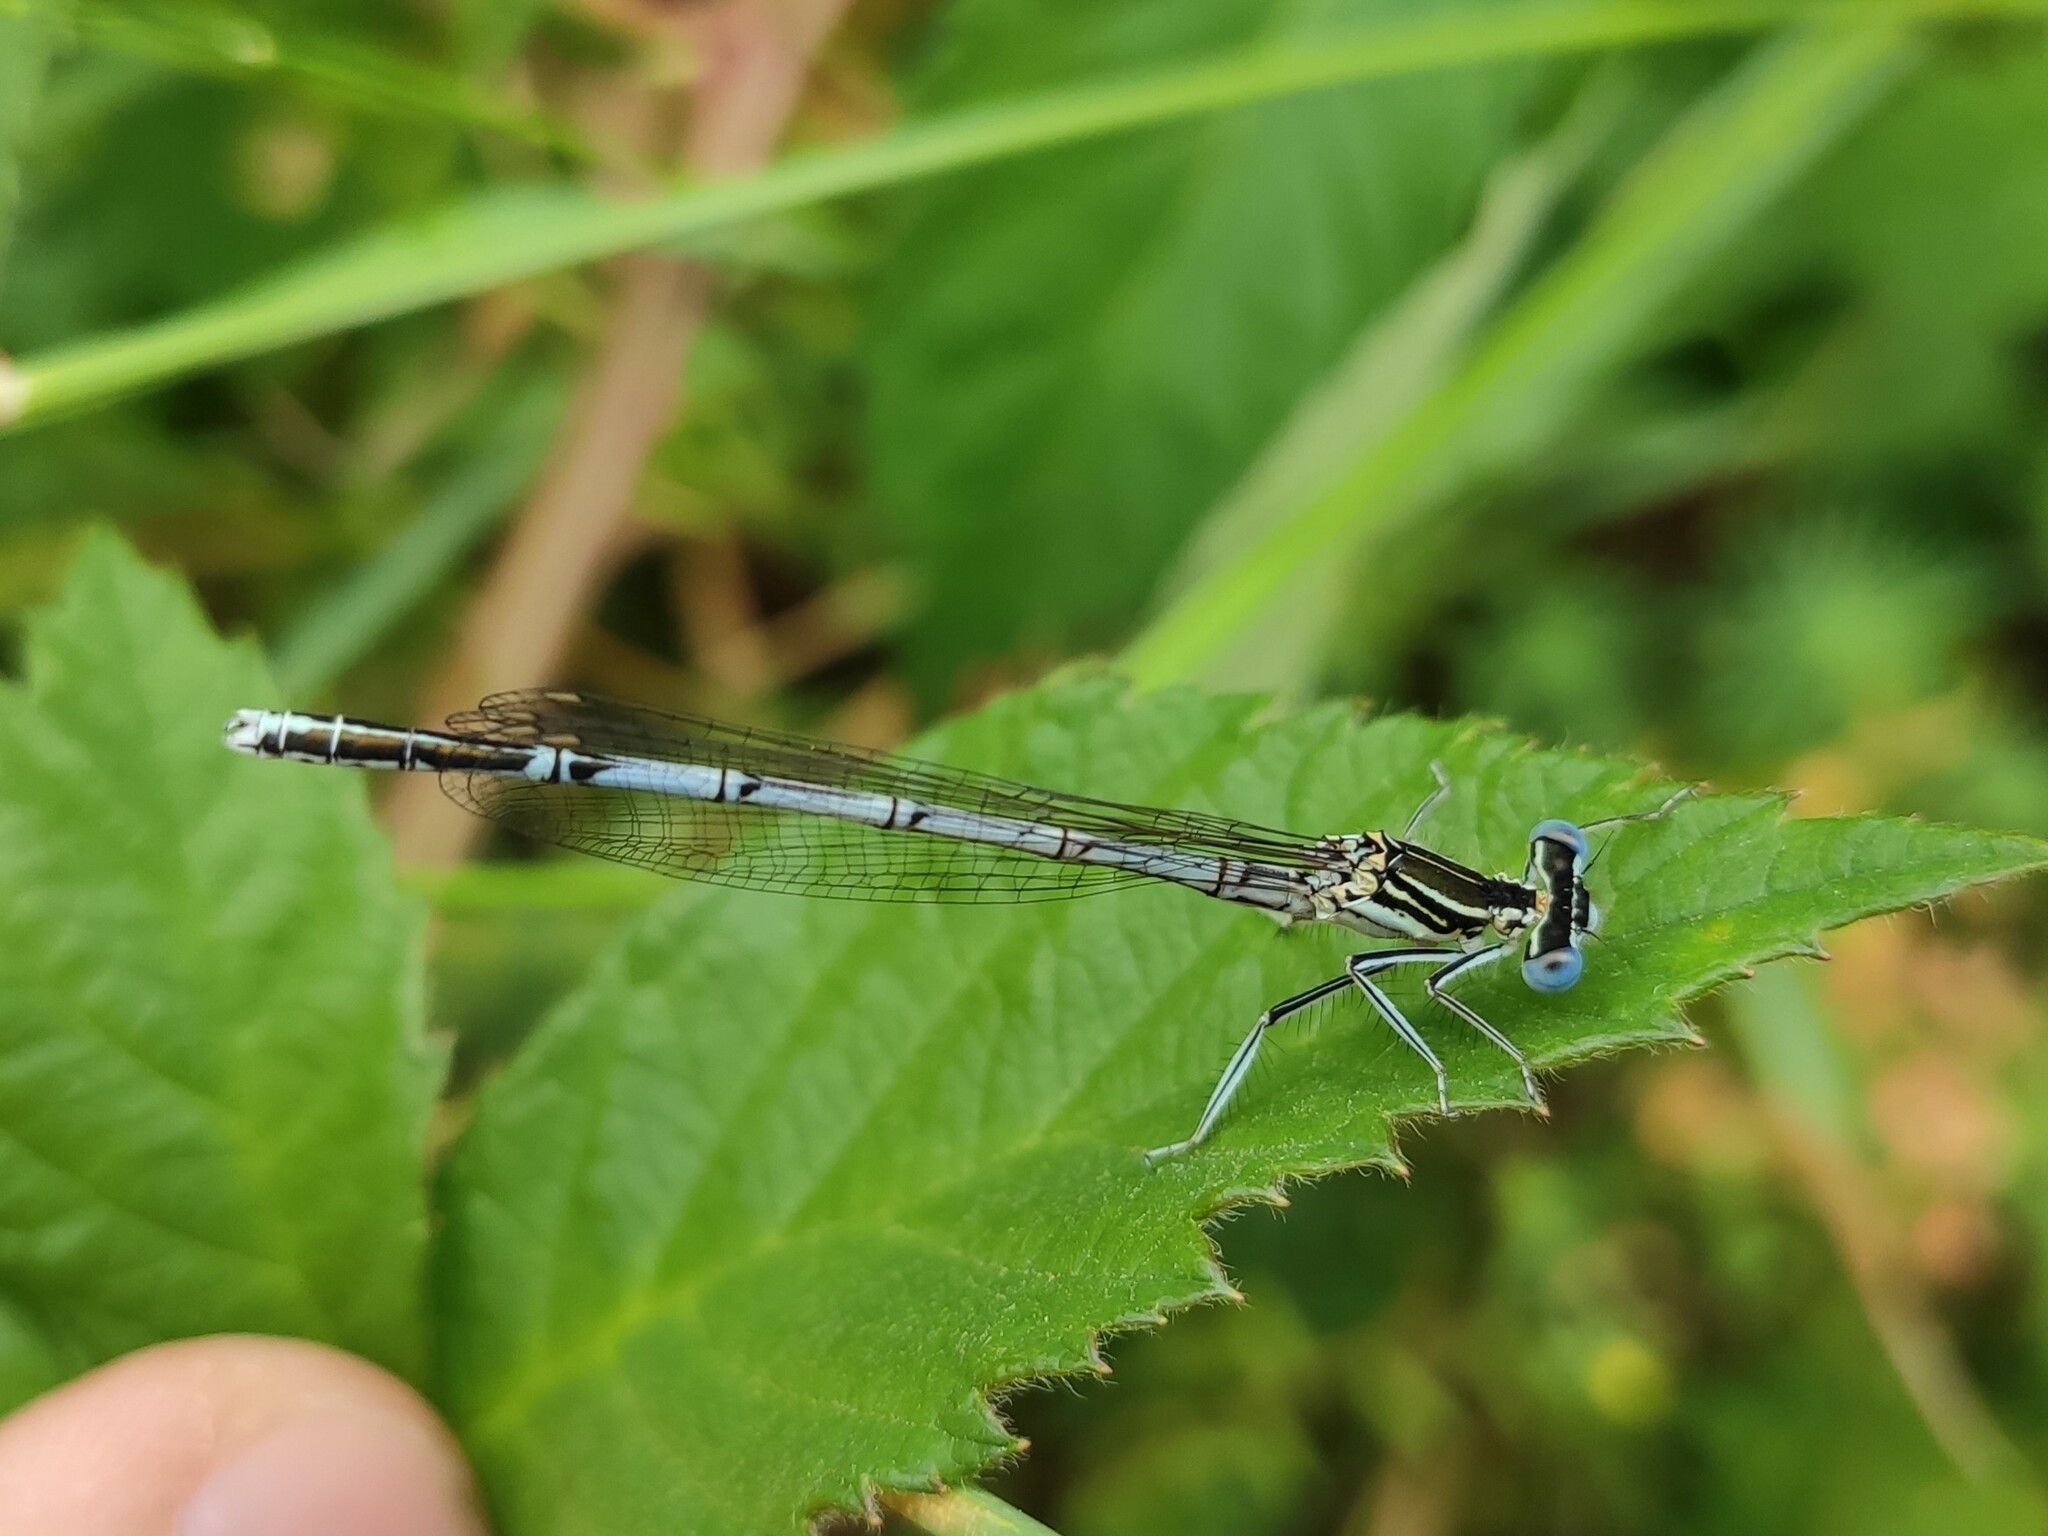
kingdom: Animalia
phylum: Arthropoda
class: Insecta
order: Odonata
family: Platycnemididae
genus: Platycnemis
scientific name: Platycnemis pennipes
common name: White-legged damselfly
